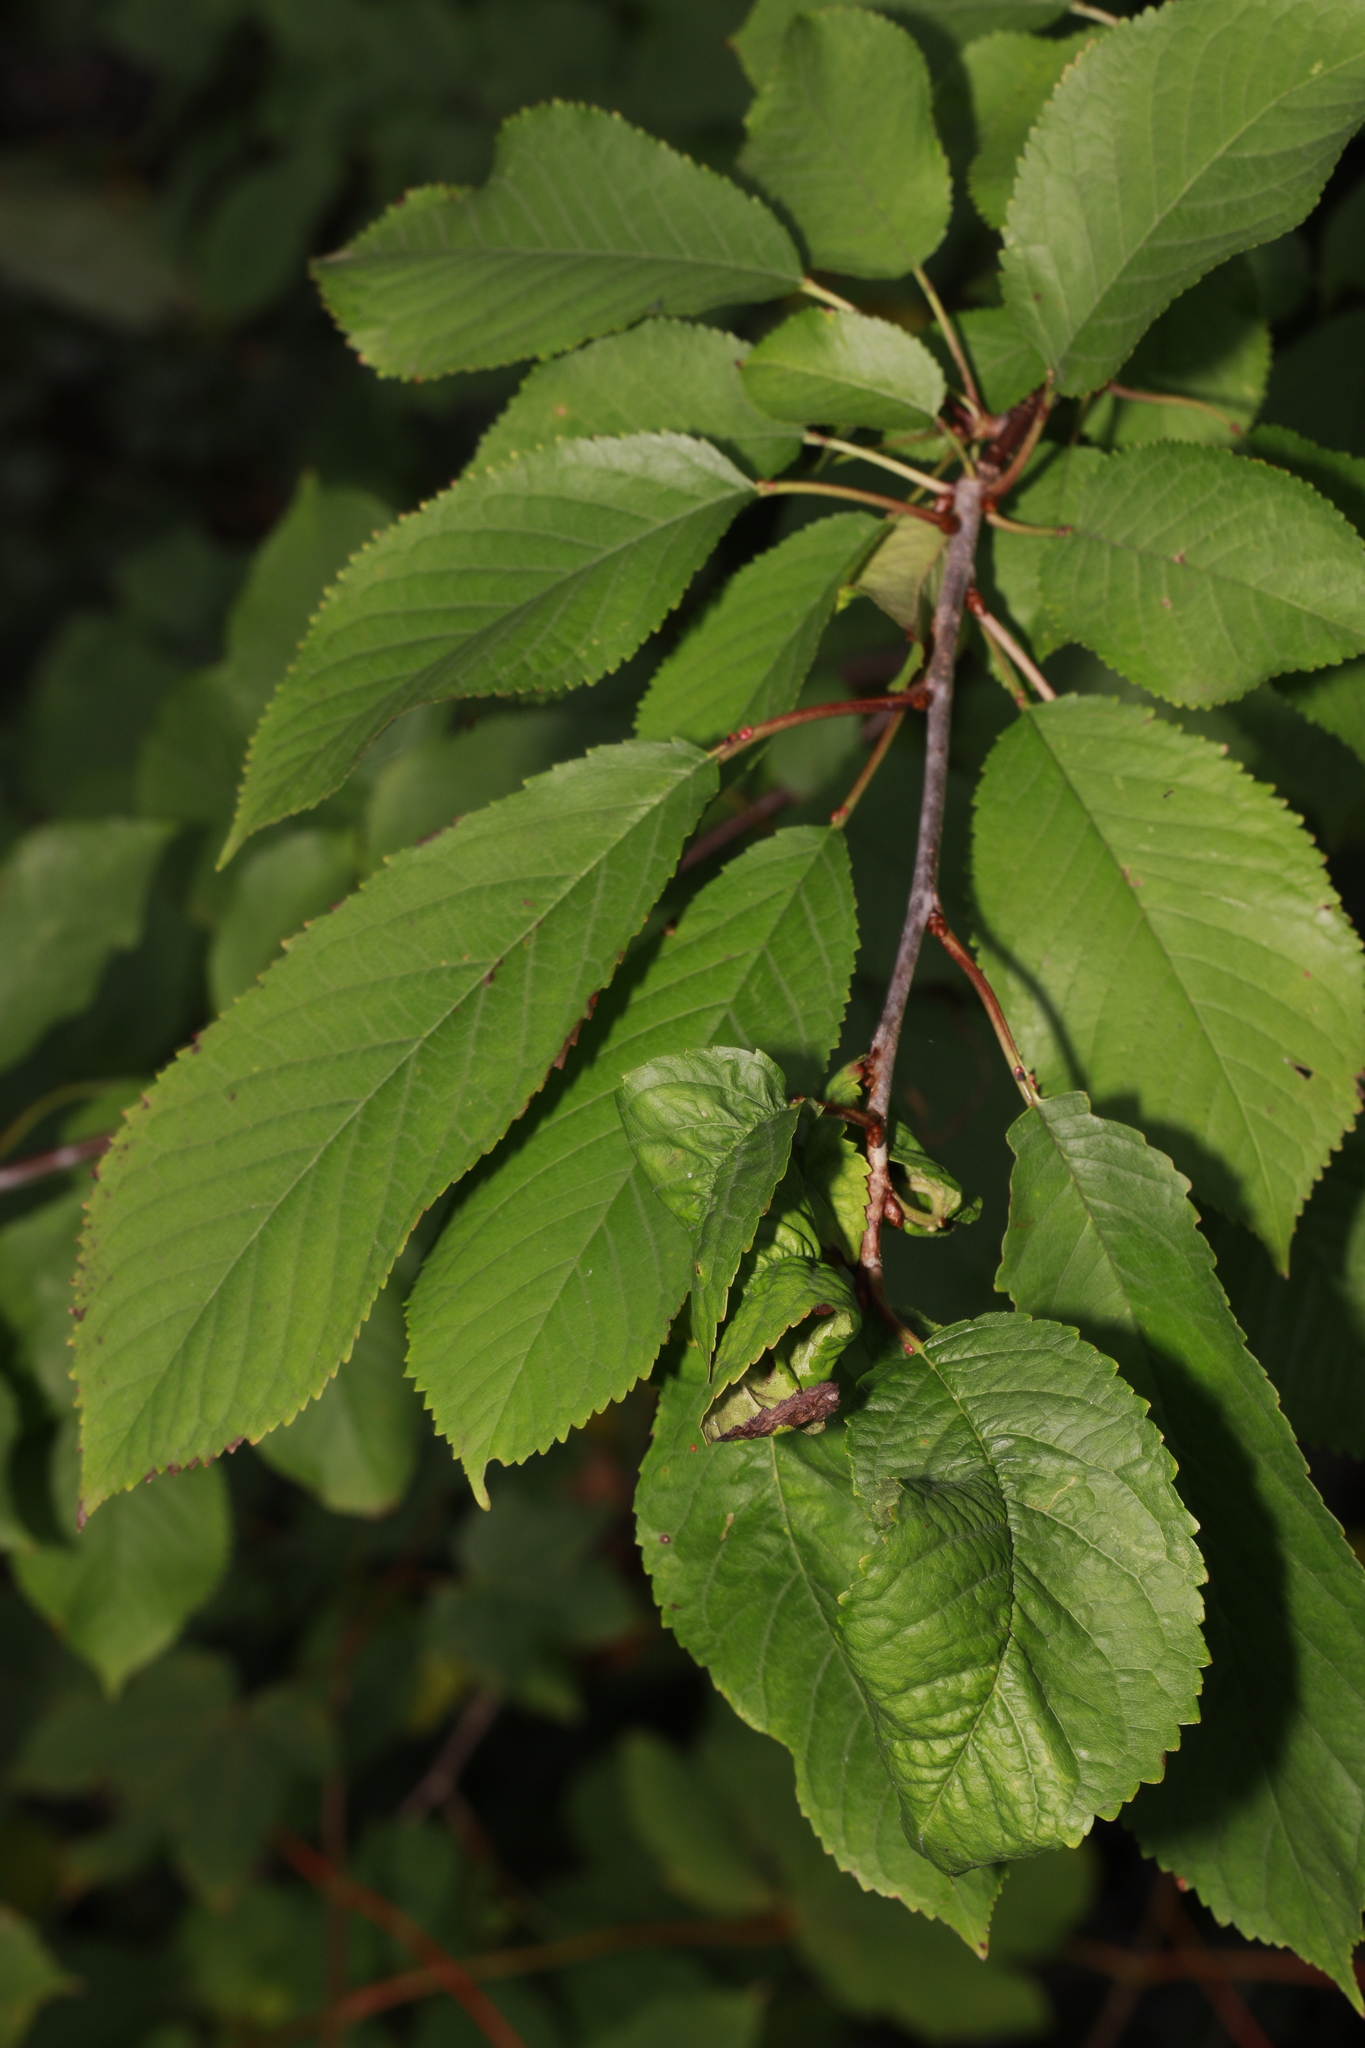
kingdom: Animalia
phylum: Arthropoda
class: Insecta
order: Hemiptera
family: Aphididae
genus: Myzus
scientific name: Myzus cerasi
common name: Black cherry aphid
